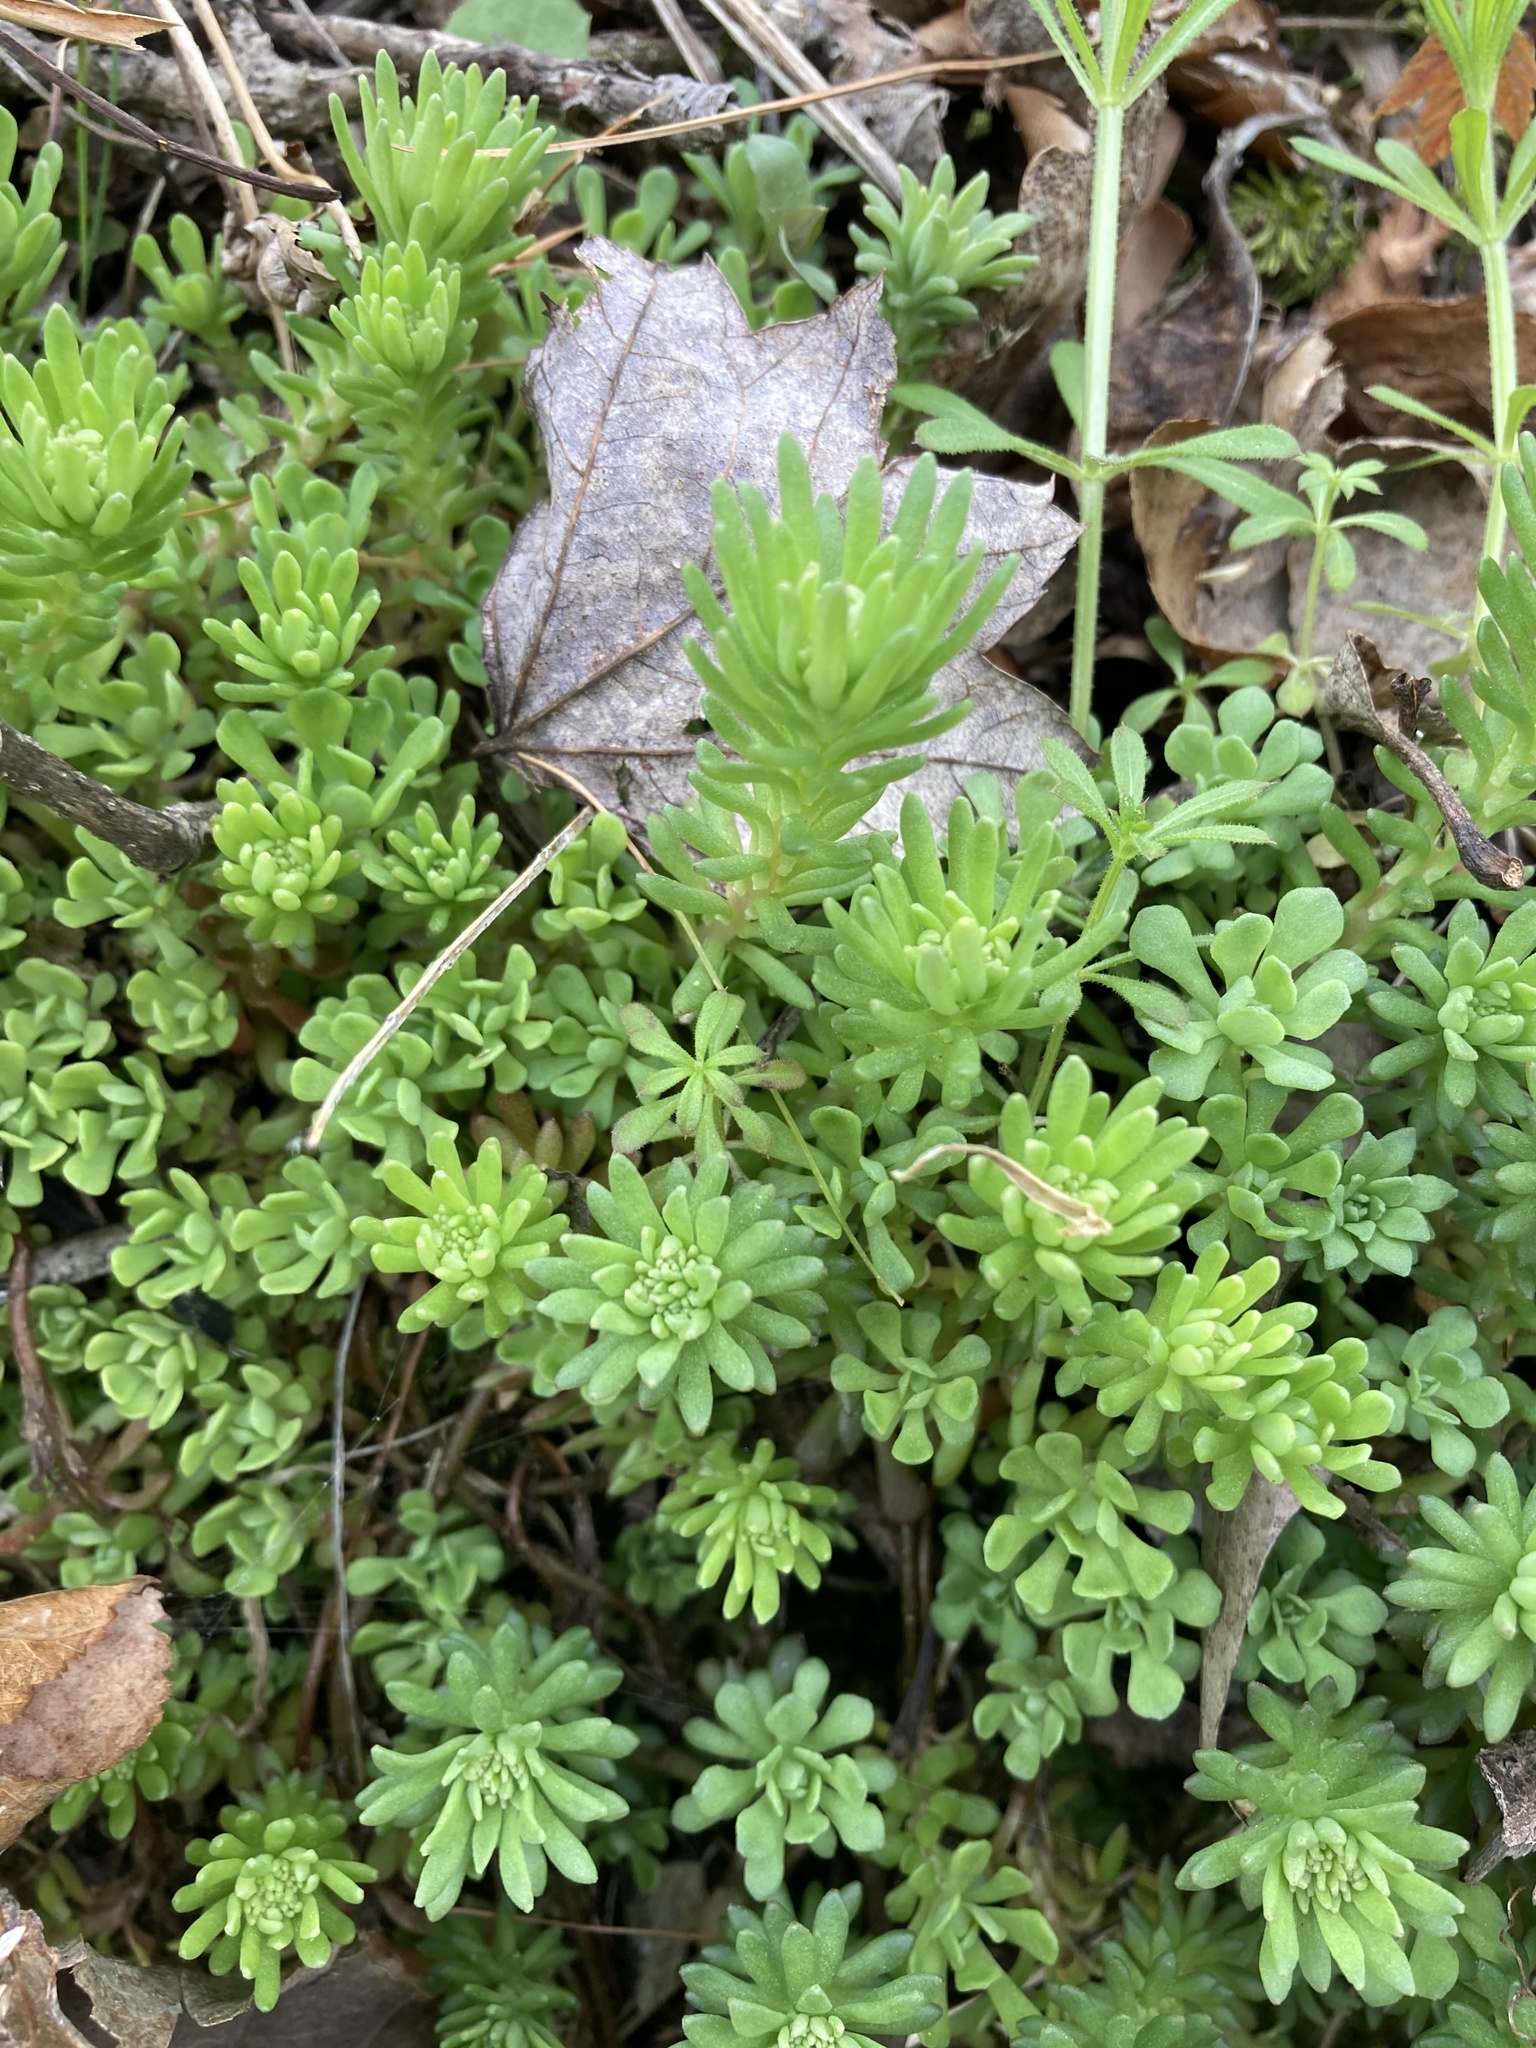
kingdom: Plantae
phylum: Tracheophyta
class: Magnoliopsida
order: Saxifragales
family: Crassulaceae
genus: Sedum
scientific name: Sedum glaucophyllum
